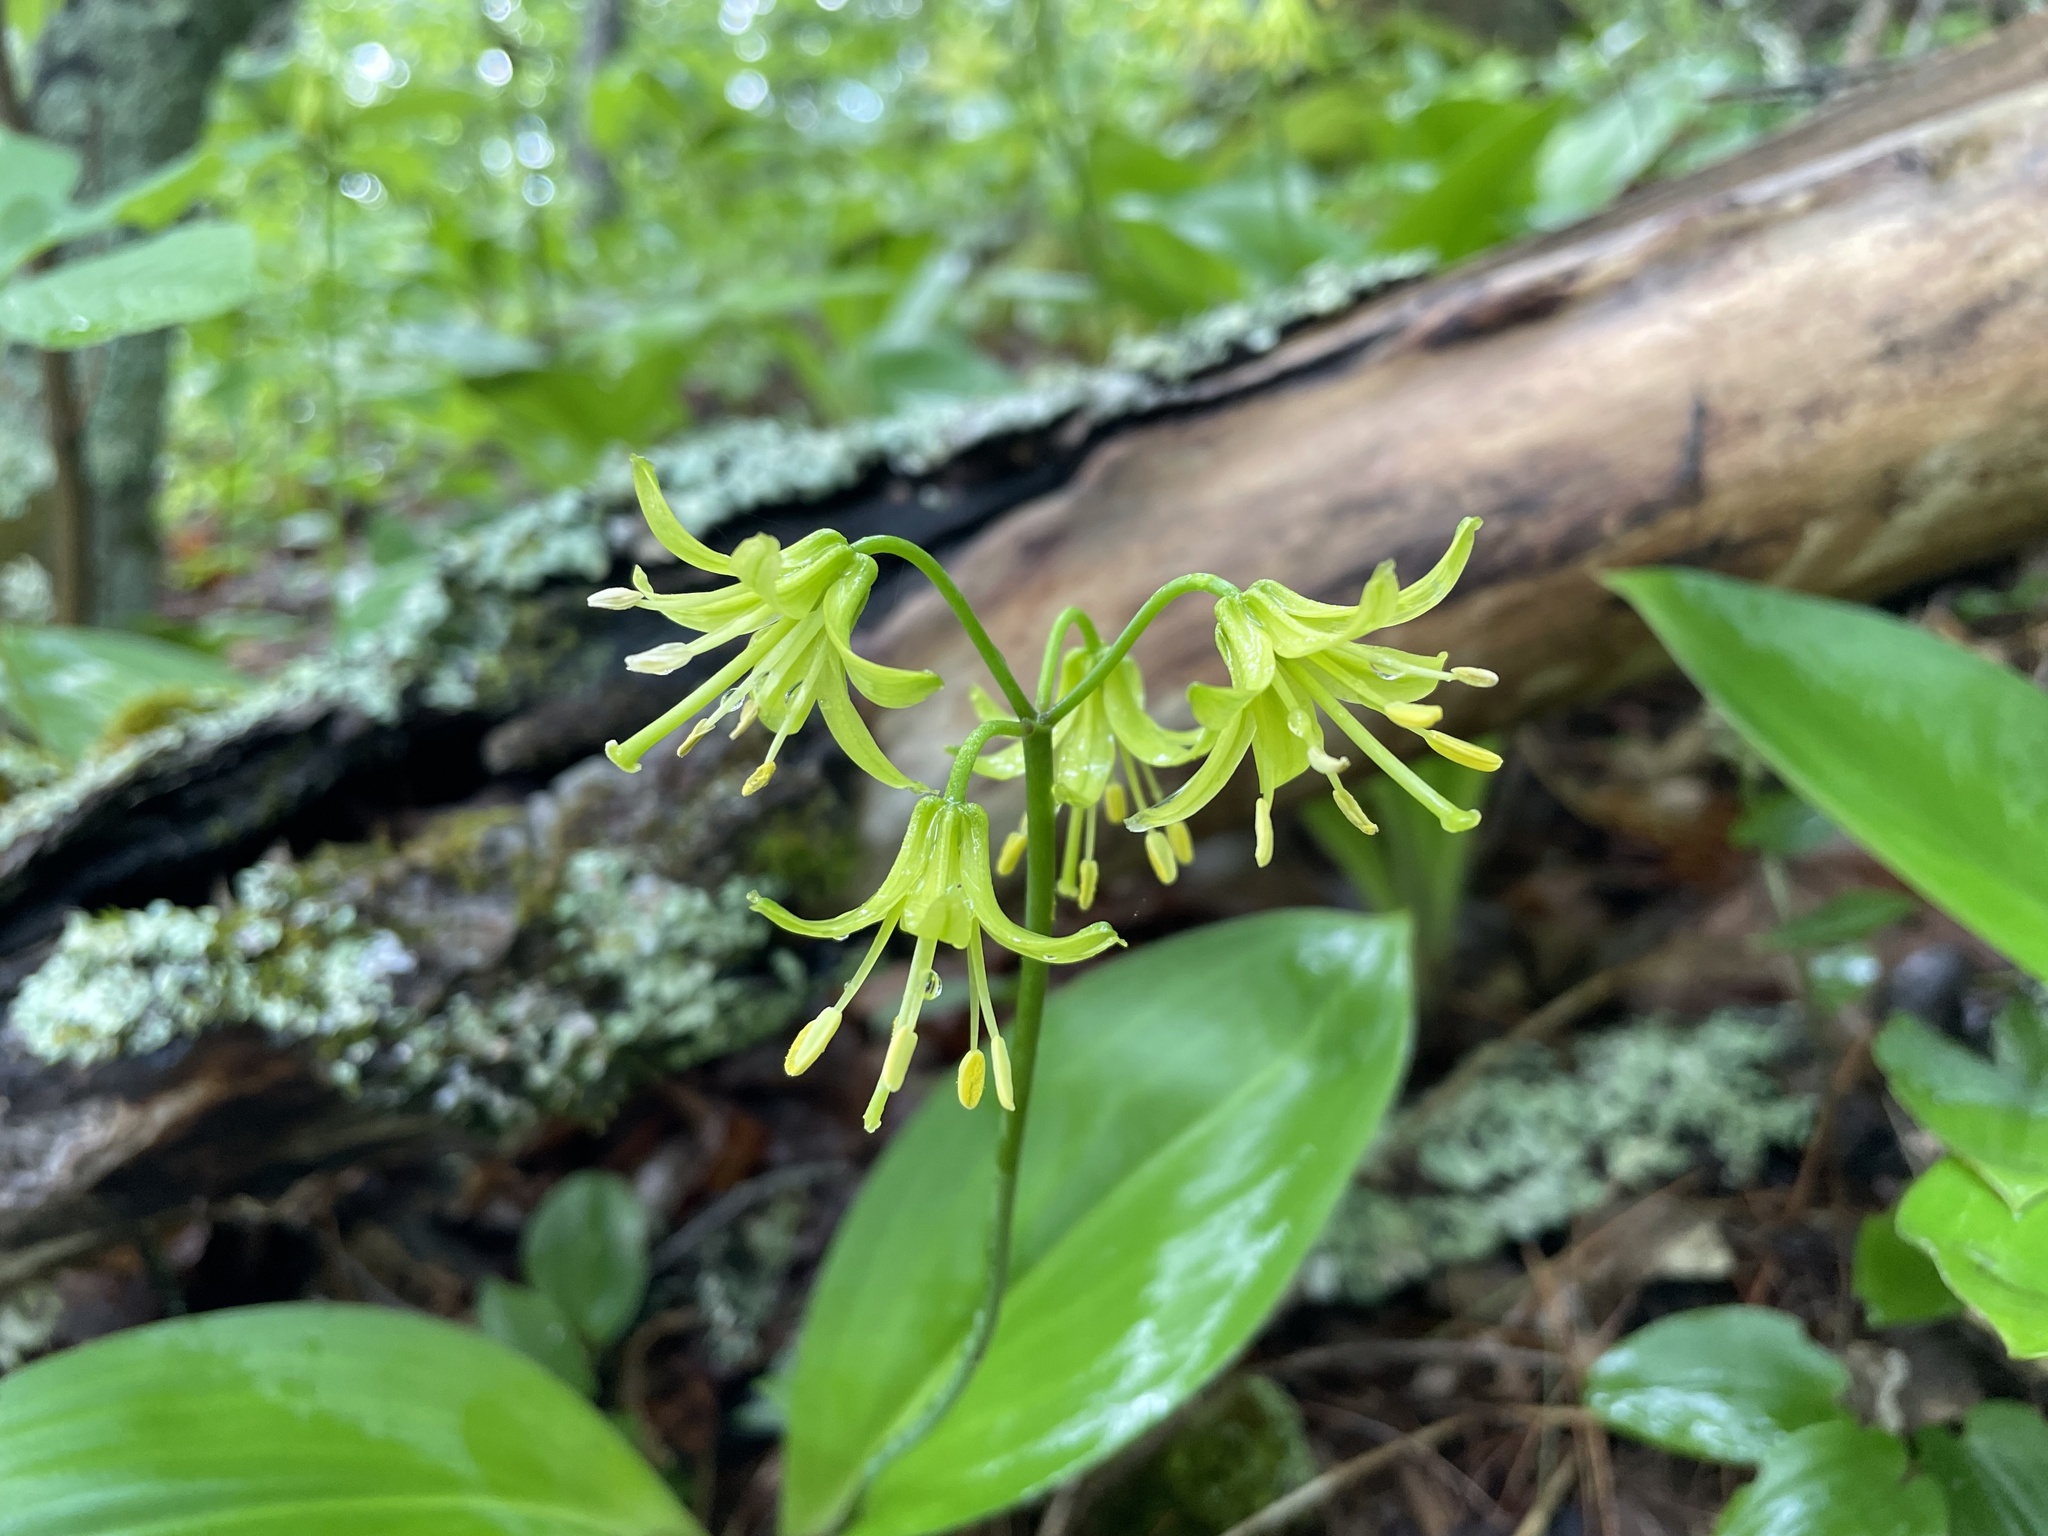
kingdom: Plantae
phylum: Tracheophyta
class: Liliopsida
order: Liliales
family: Liliaceae
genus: Clintonia
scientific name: Clintonia borealis
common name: Yellow clintonia
